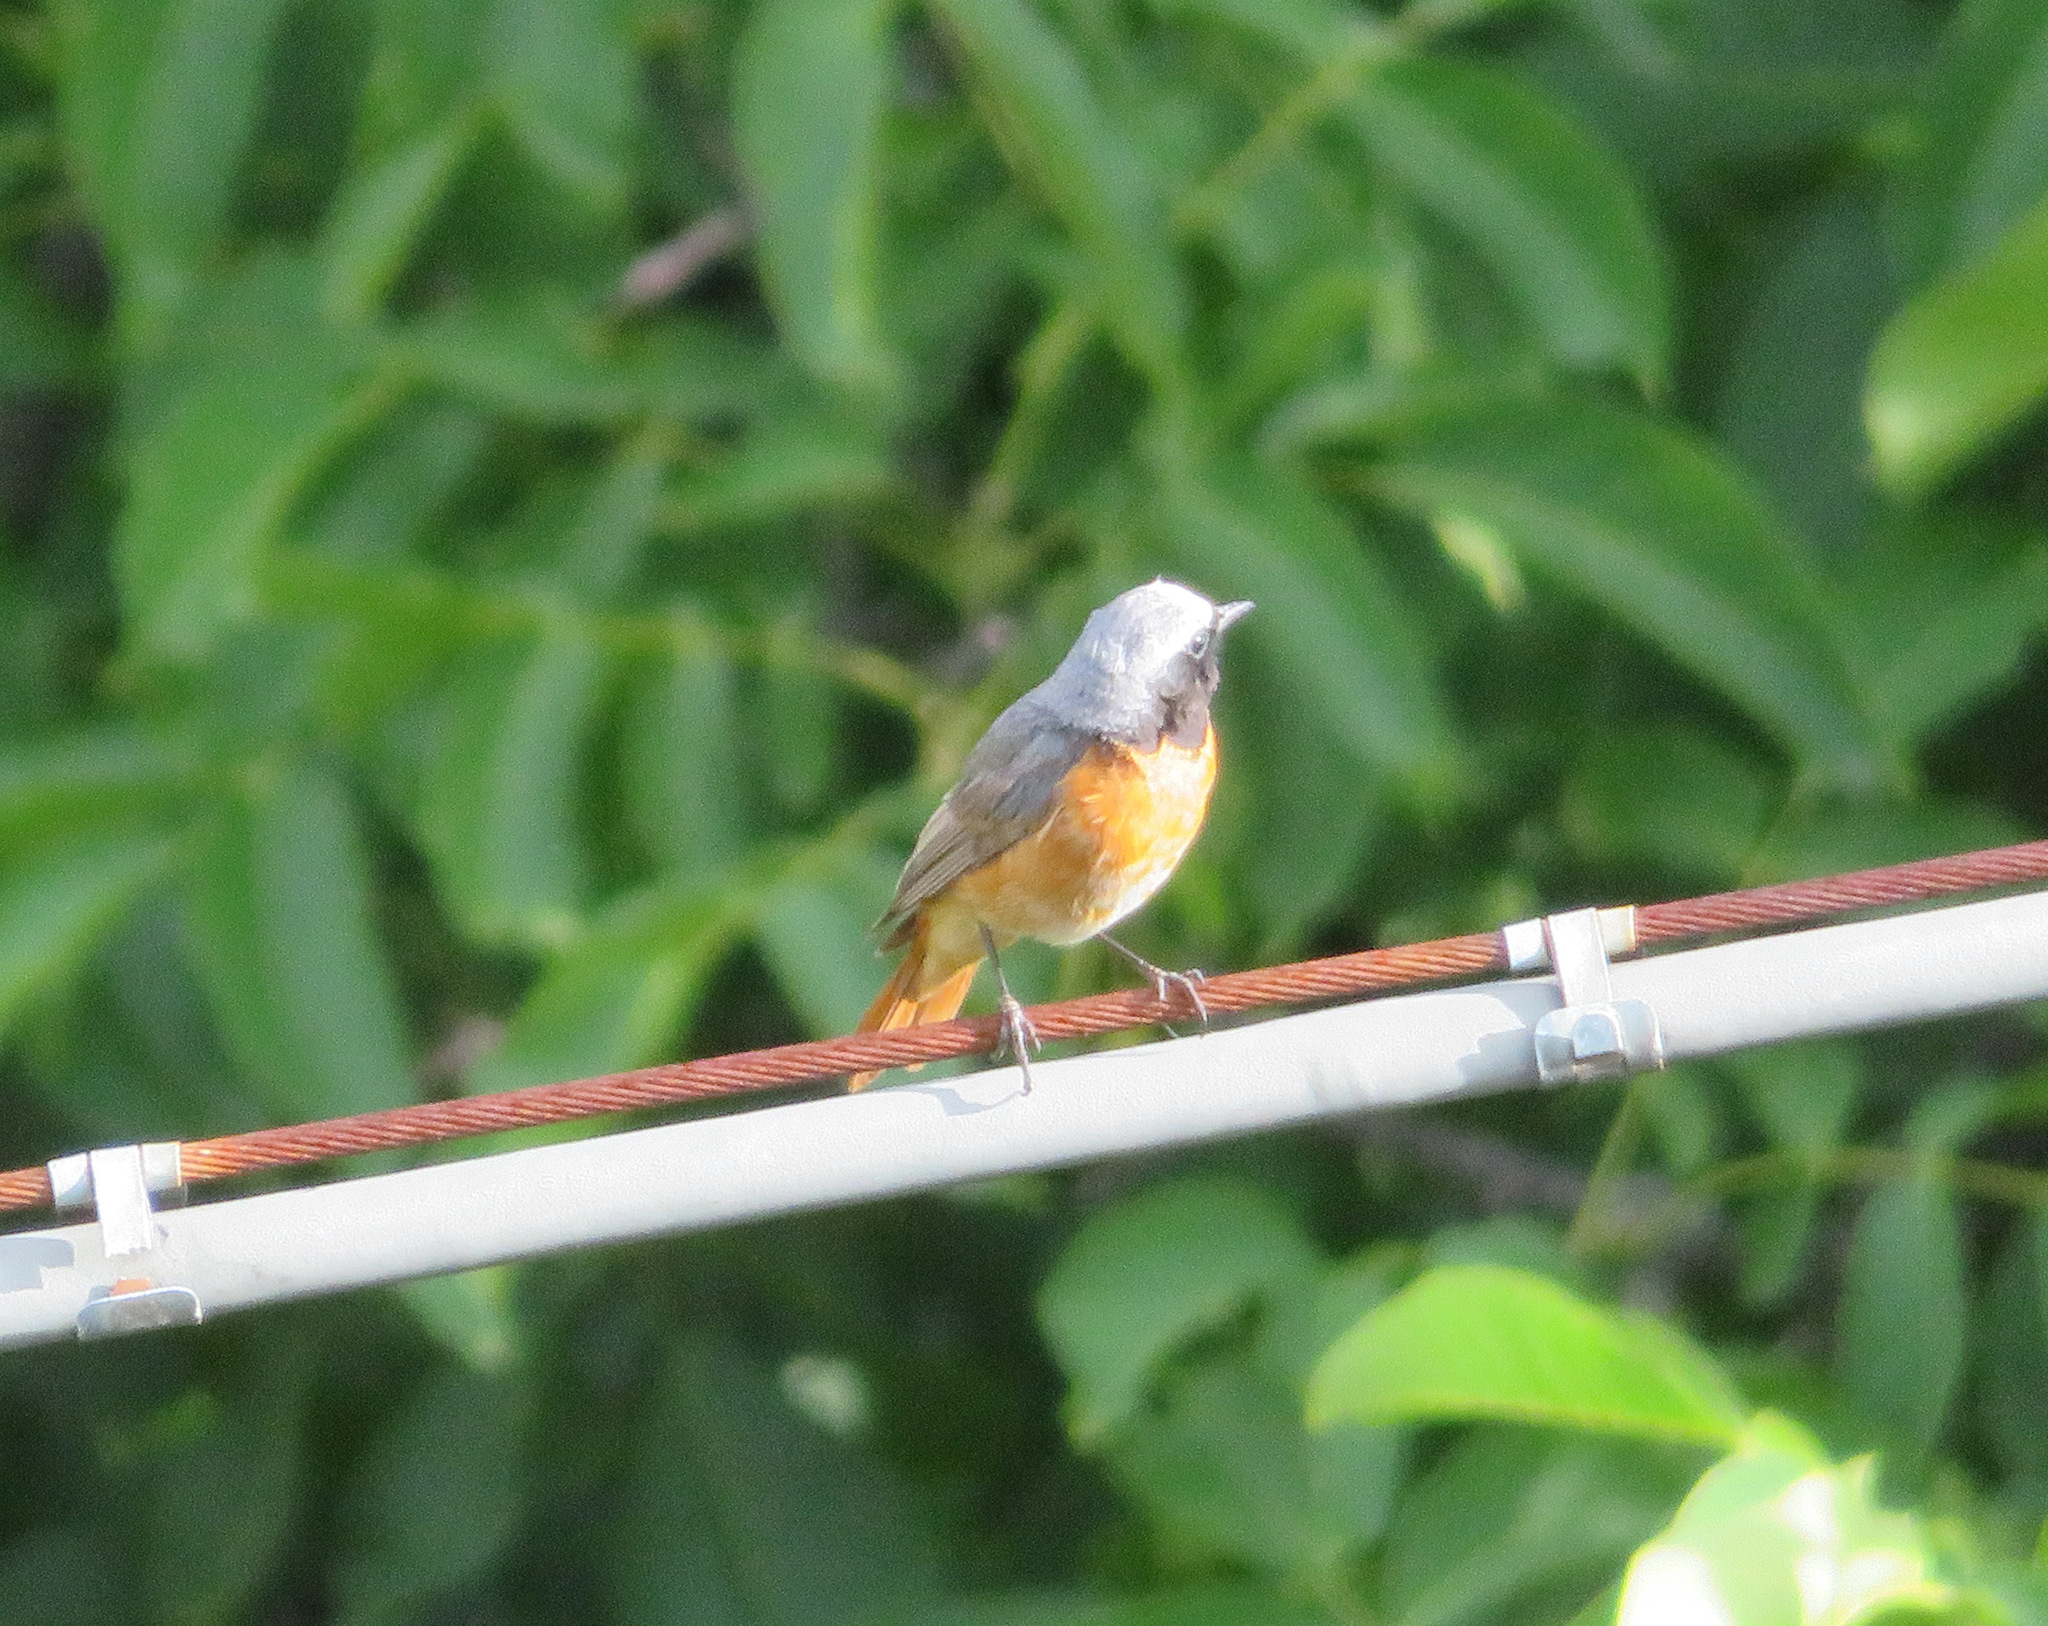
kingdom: Animalia
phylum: Chordata
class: Aves
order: Passeriformes
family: Muscicapidae
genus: Phoenicurus
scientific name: Phoenicurus phoenicurus
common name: Common redstart
